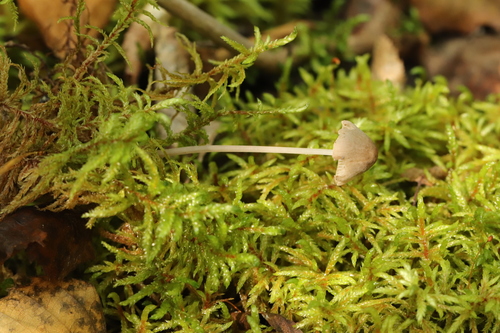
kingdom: Fungi
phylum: Basidiomycota
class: Agaricomycetes
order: Agaricales
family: Mycenaceae
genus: Mycena
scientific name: Mycena
